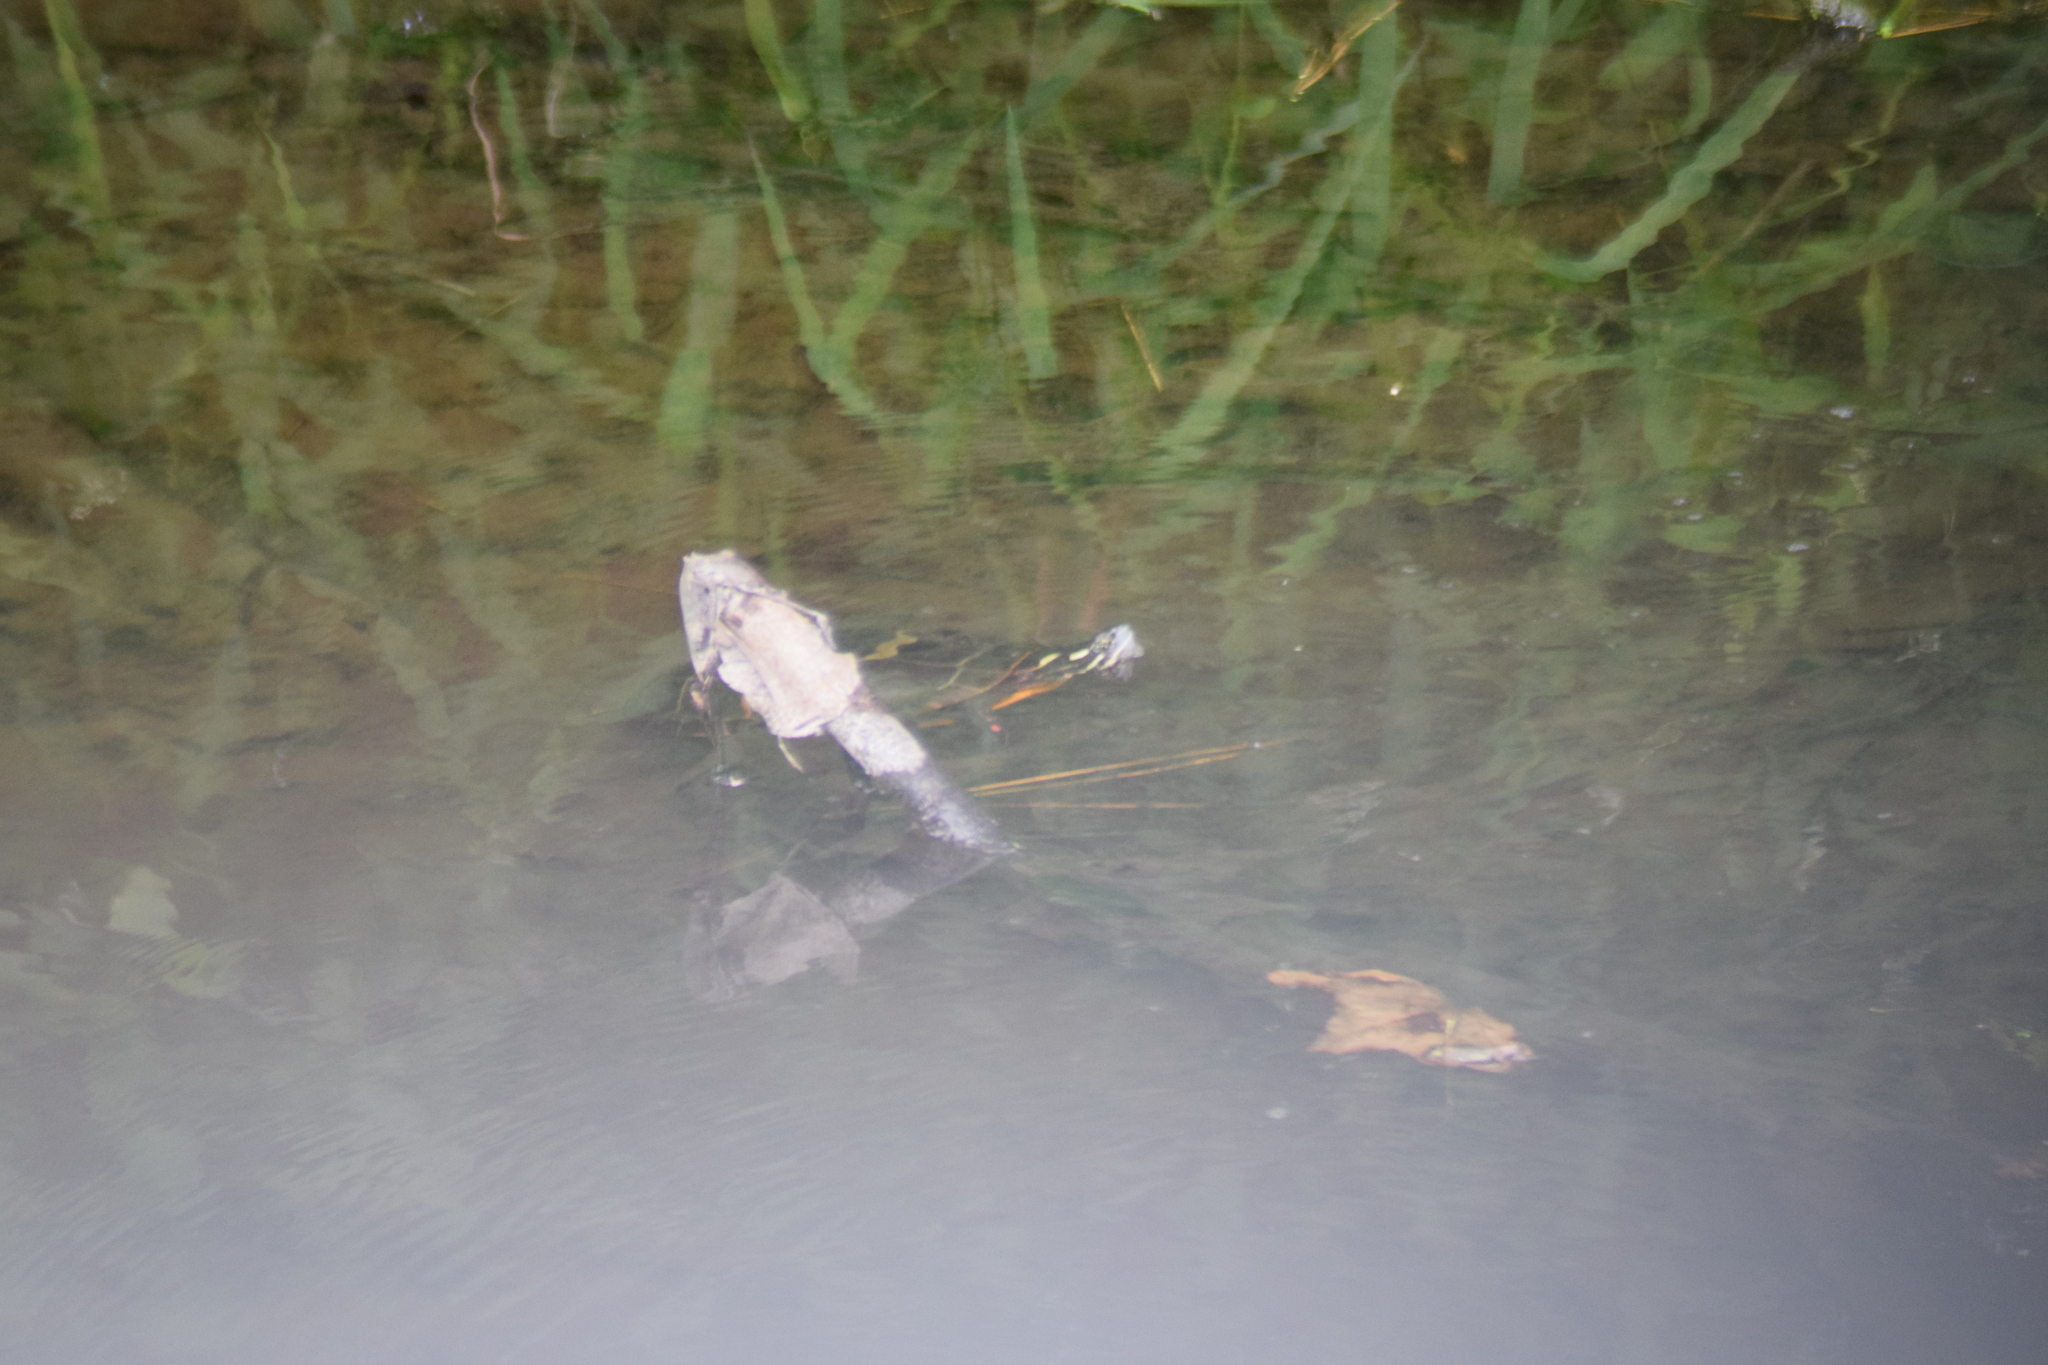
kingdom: Animalia
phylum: Chordata
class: Testudines
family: Emydidae
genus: Chrysemys
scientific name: Chrysemys picta
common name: Painted turtle
